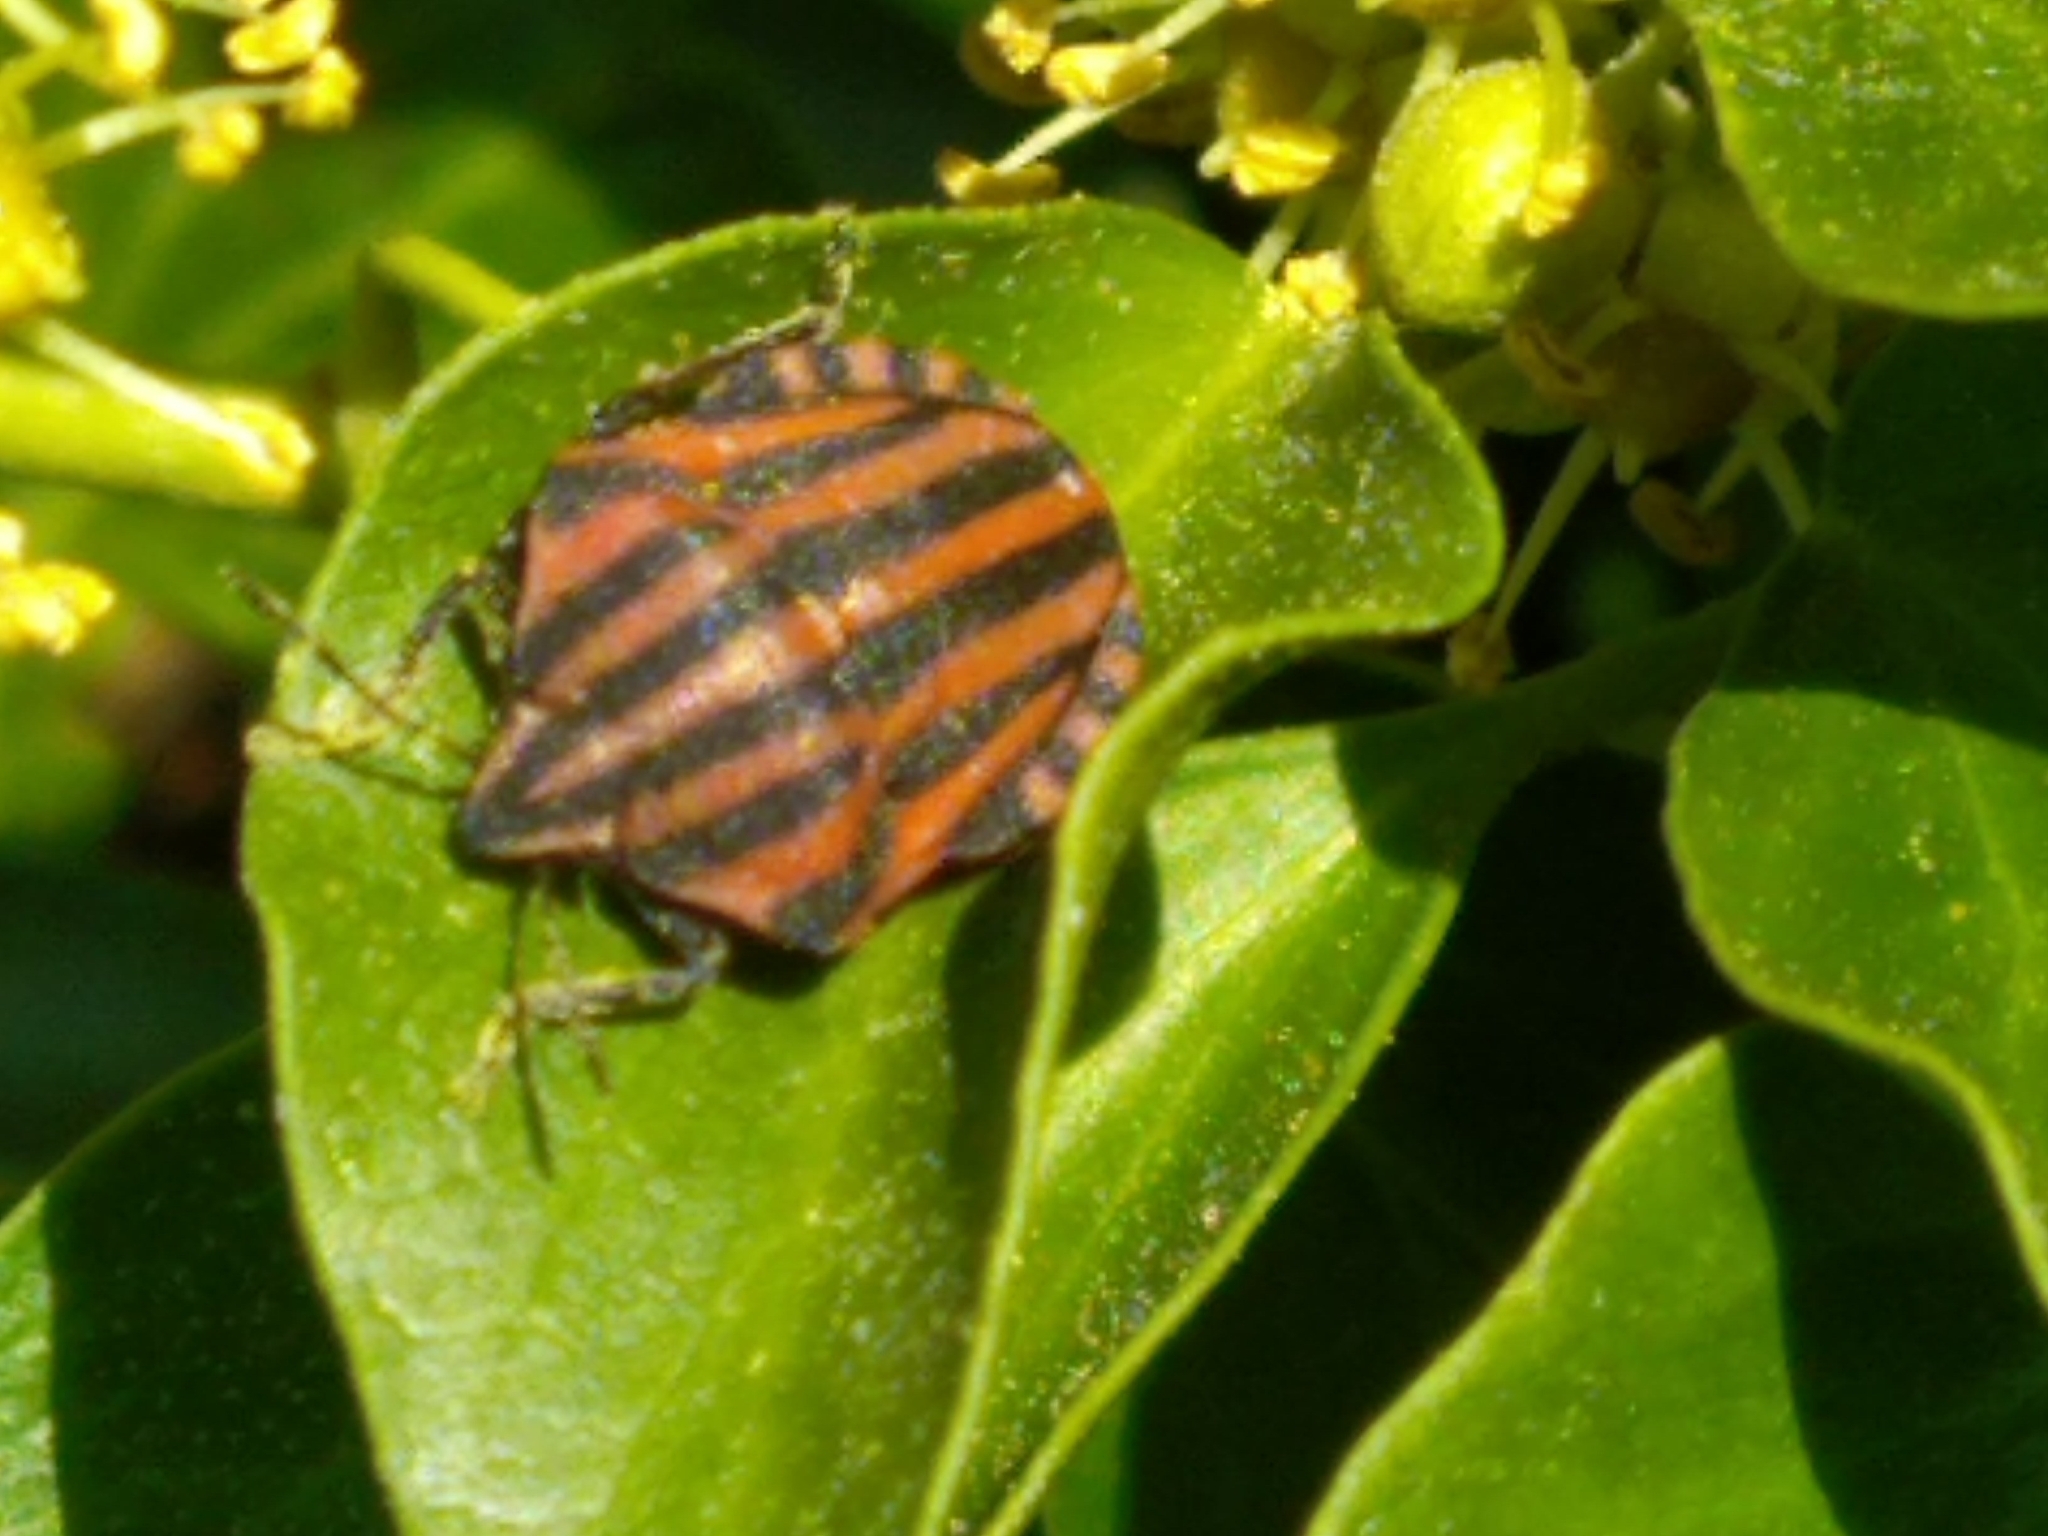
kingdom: Animalia
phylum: Arthropoda
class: Insecta
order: Hemiptera
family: Pentatomidae
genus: Graphosoma
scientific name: Graphosoma italicum
